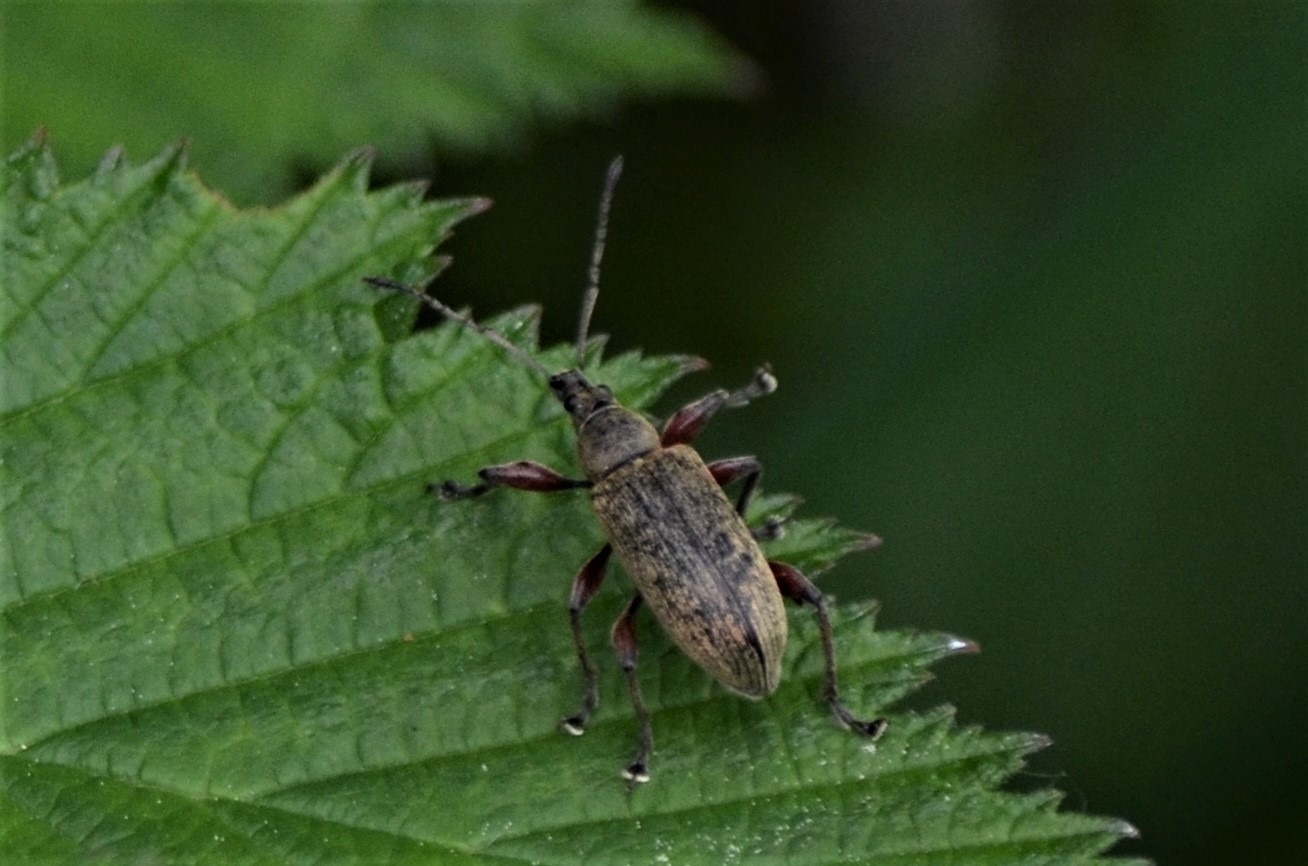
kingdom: Animalia
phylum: Arthropoda
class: Insecta
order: Coleoptera
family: Curculionidae
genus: Phyllobius
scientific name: Phyllobius glaucus
